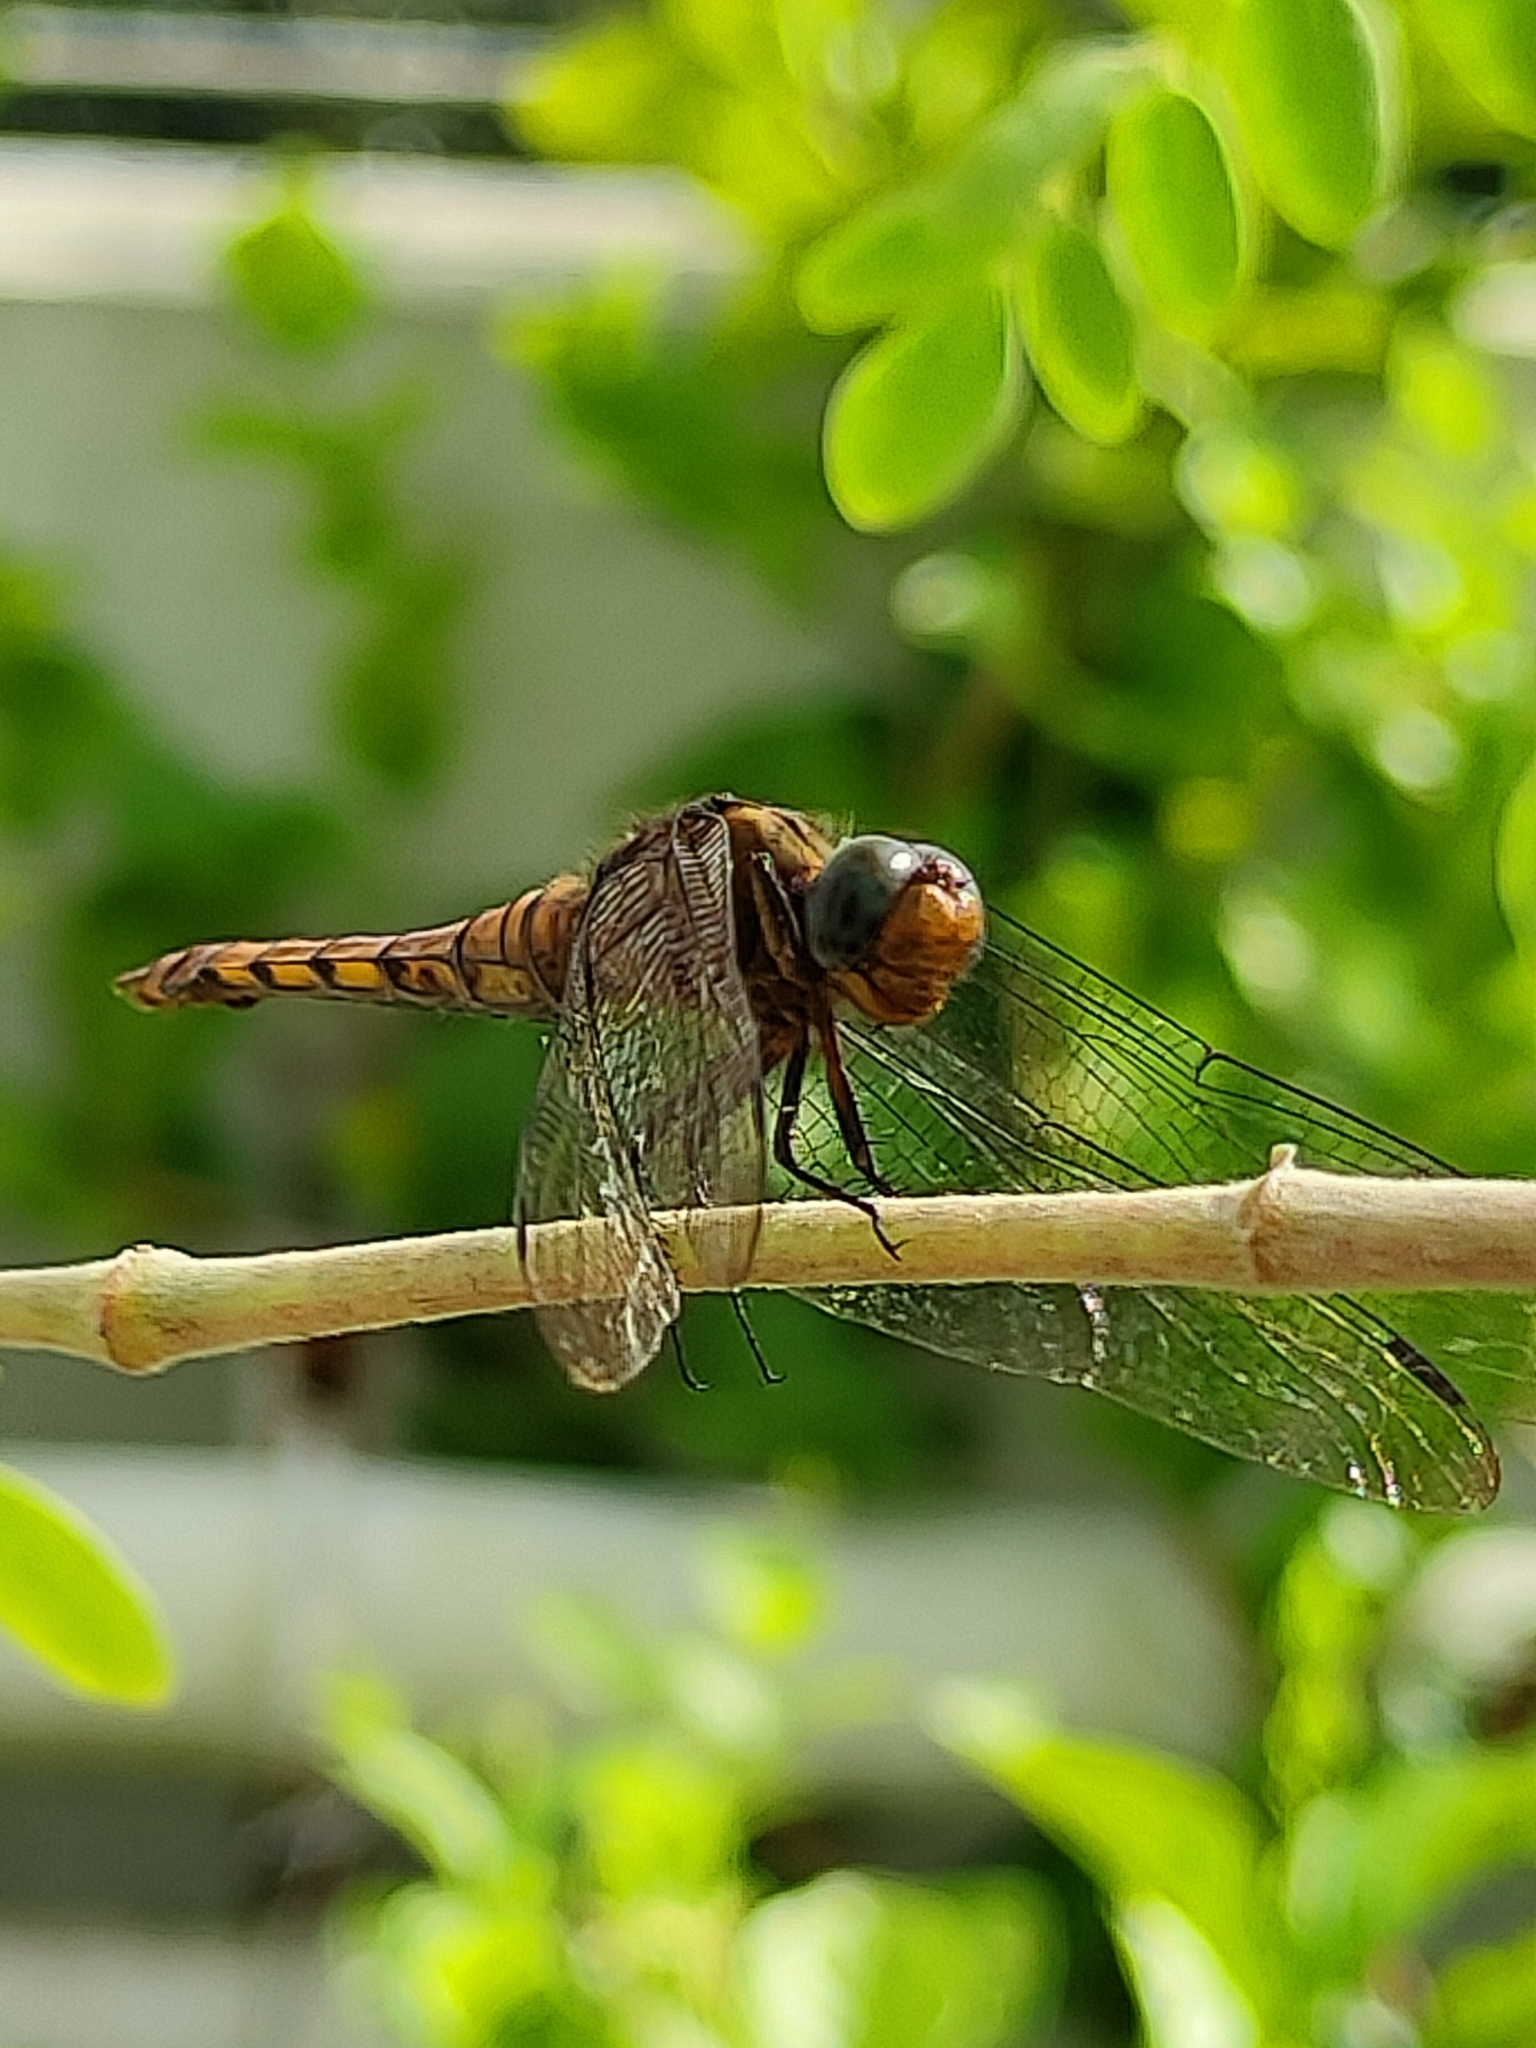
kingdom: Animalia
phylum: Arthropoda
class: Insecta
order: Odonata
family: Libellulidae
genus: Orthetrum
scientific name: Orthetrum pruinosum
